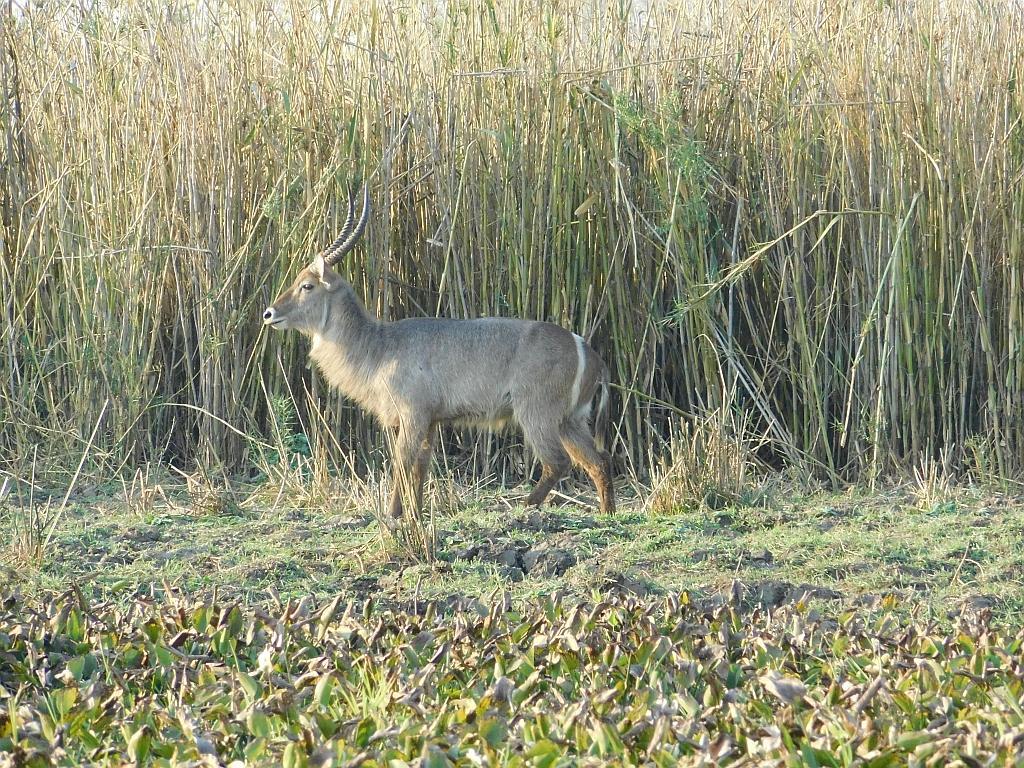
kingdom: Animalia
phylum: Chordata
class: Mammalia
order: Artiodactyla
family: Bovidae
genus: Kobus
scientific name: Kobus ellipsiprymnus
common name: Waterbuck
